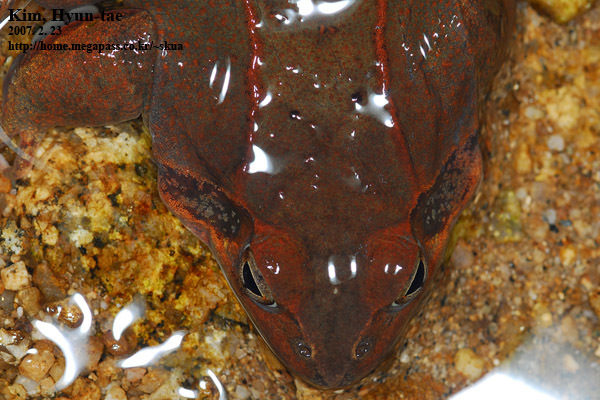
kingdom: Animalia
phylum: Chordata
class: Amphibia
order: Anura
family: Ranidae
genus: Rana
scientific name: Rana uenoi
